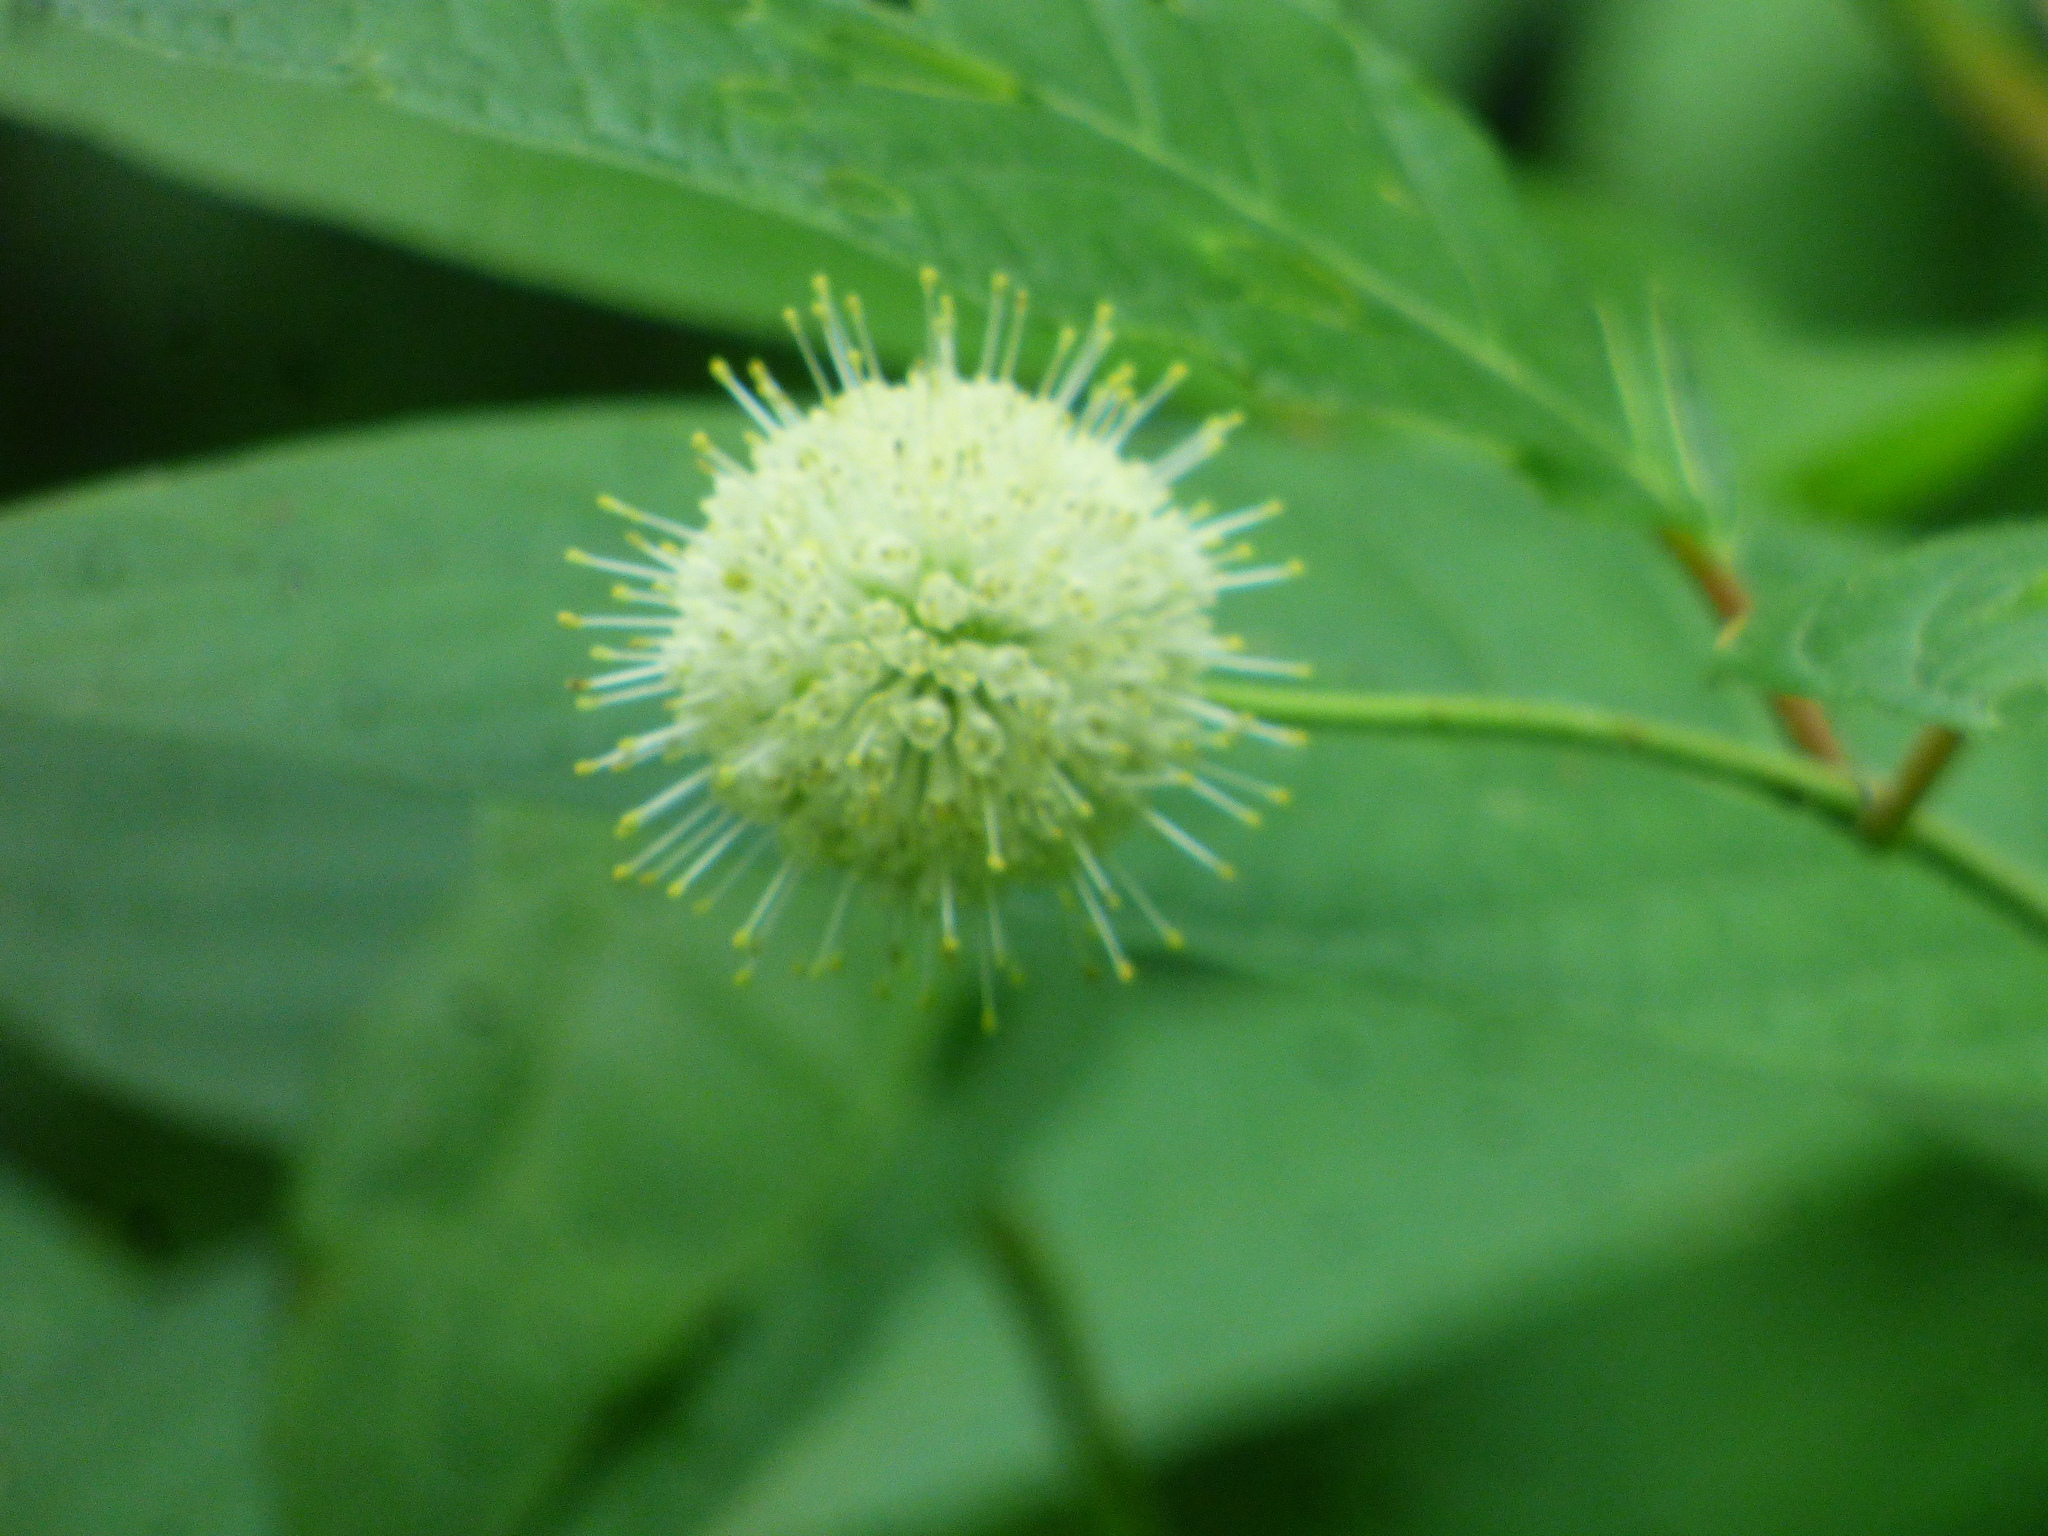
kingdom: Plantae
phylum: Tracheophyta
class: Magnoliopsida
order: Gentianales
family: Rubiaceae
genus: Cephalanthus
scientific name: Cephalanthus occidentalis
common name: Button-willow
